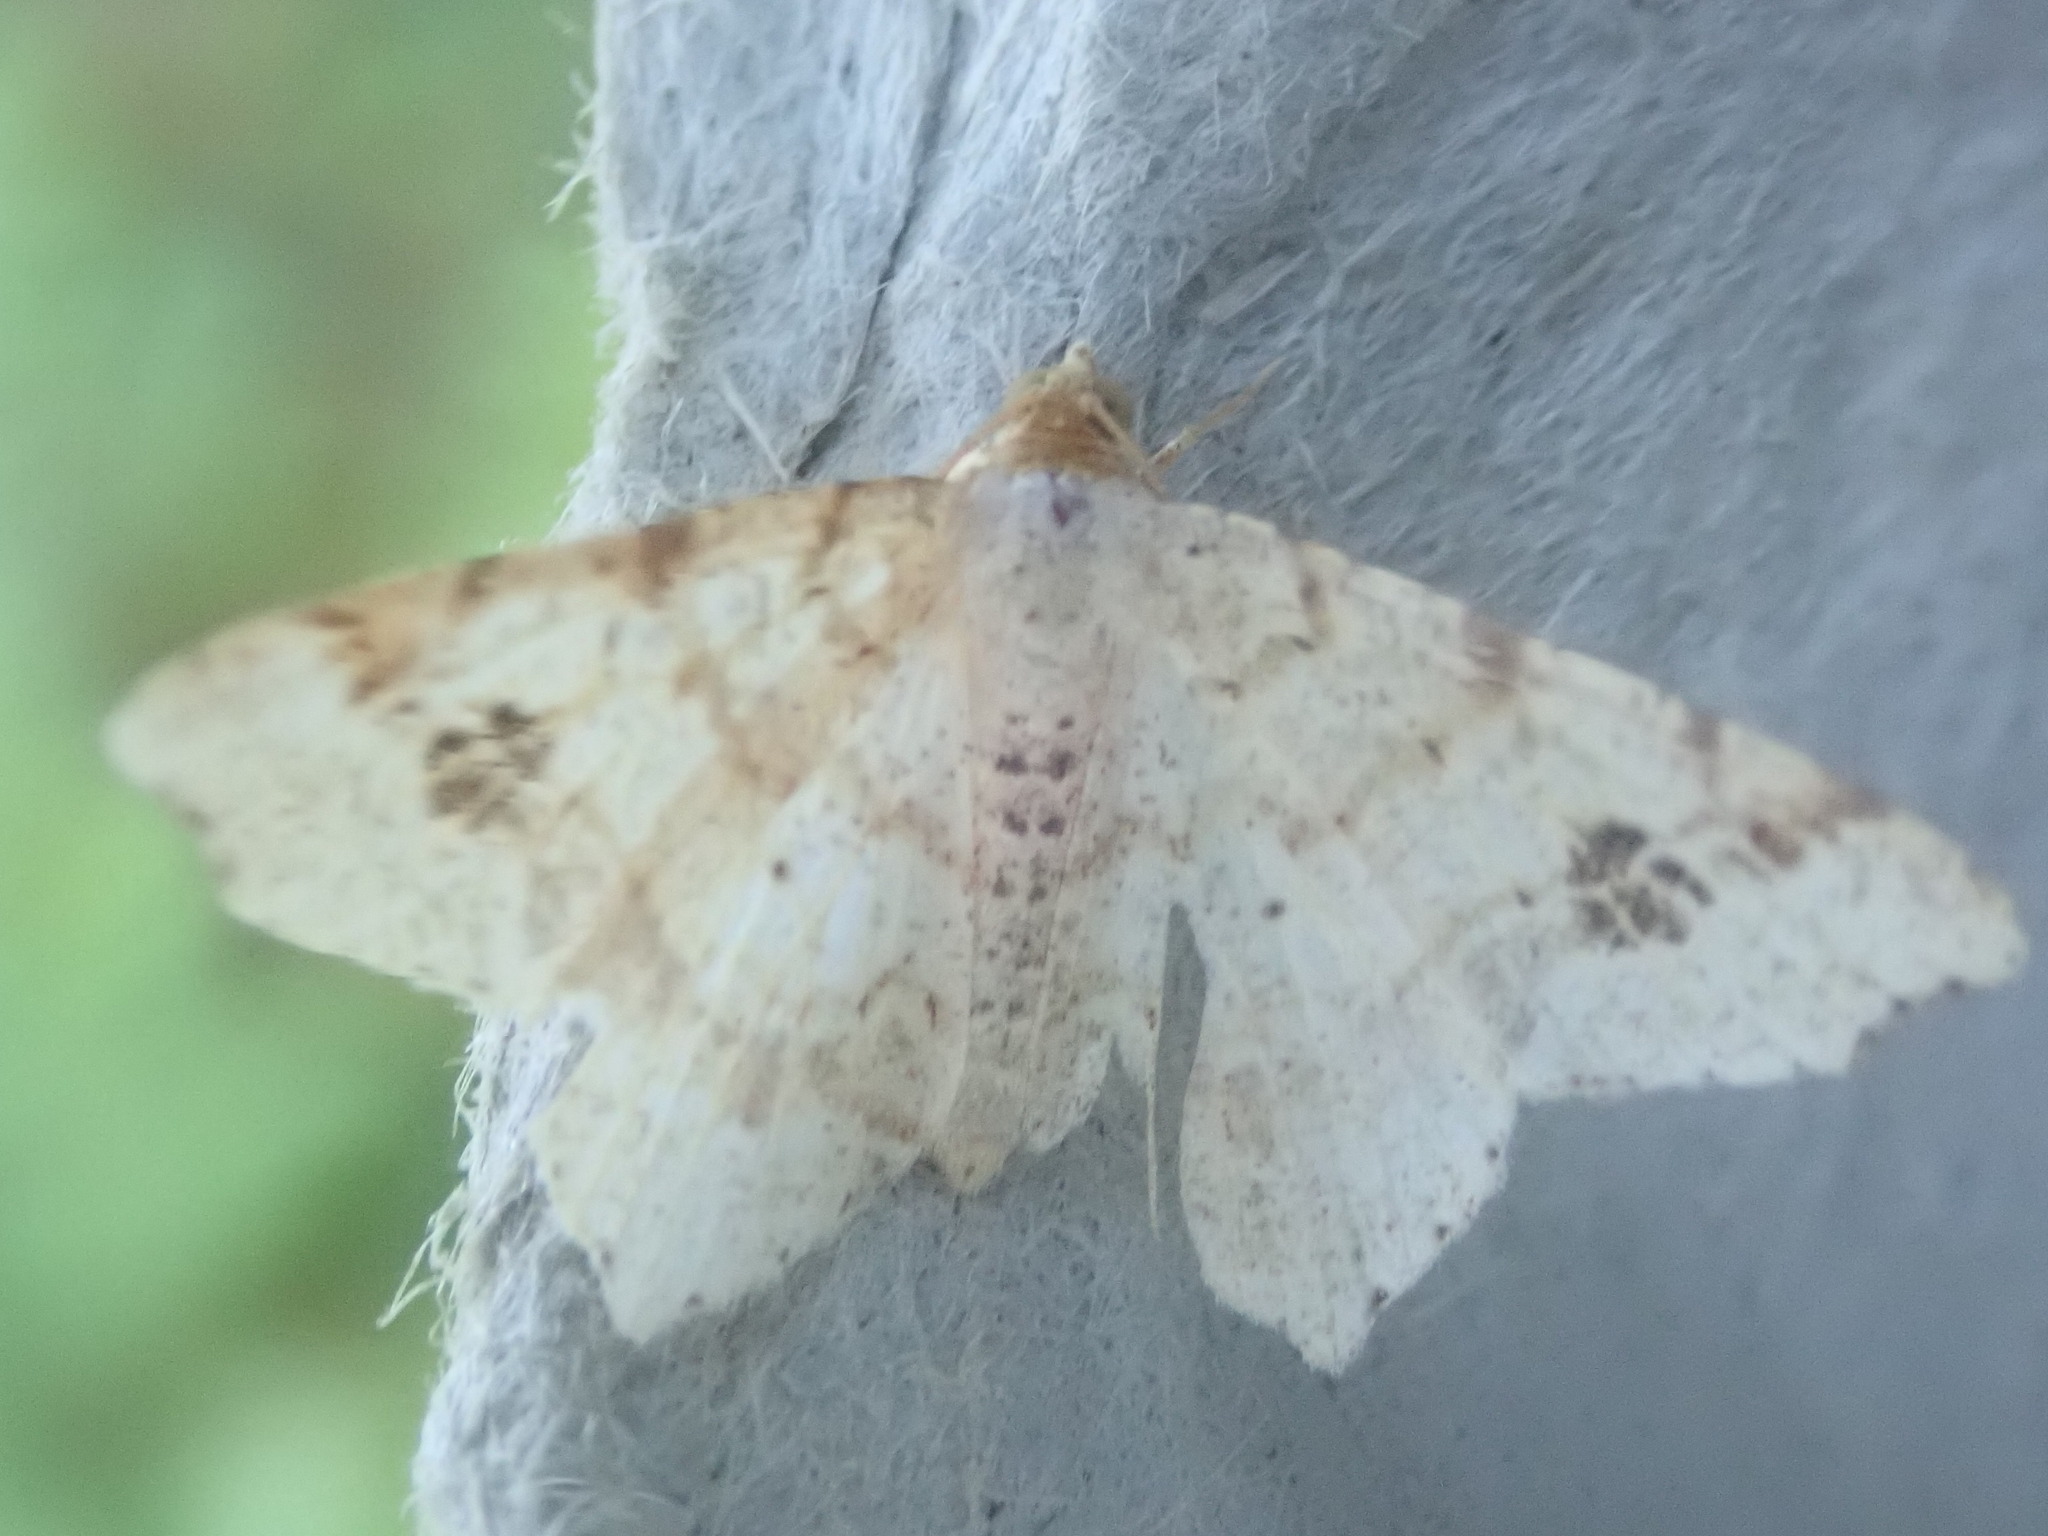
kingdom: Animalia
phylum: Arthropoda
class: Insecta
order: Lepidoptera
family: Geometridae
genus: Macaria
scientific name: Macaria aemulataria
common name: Common angle
